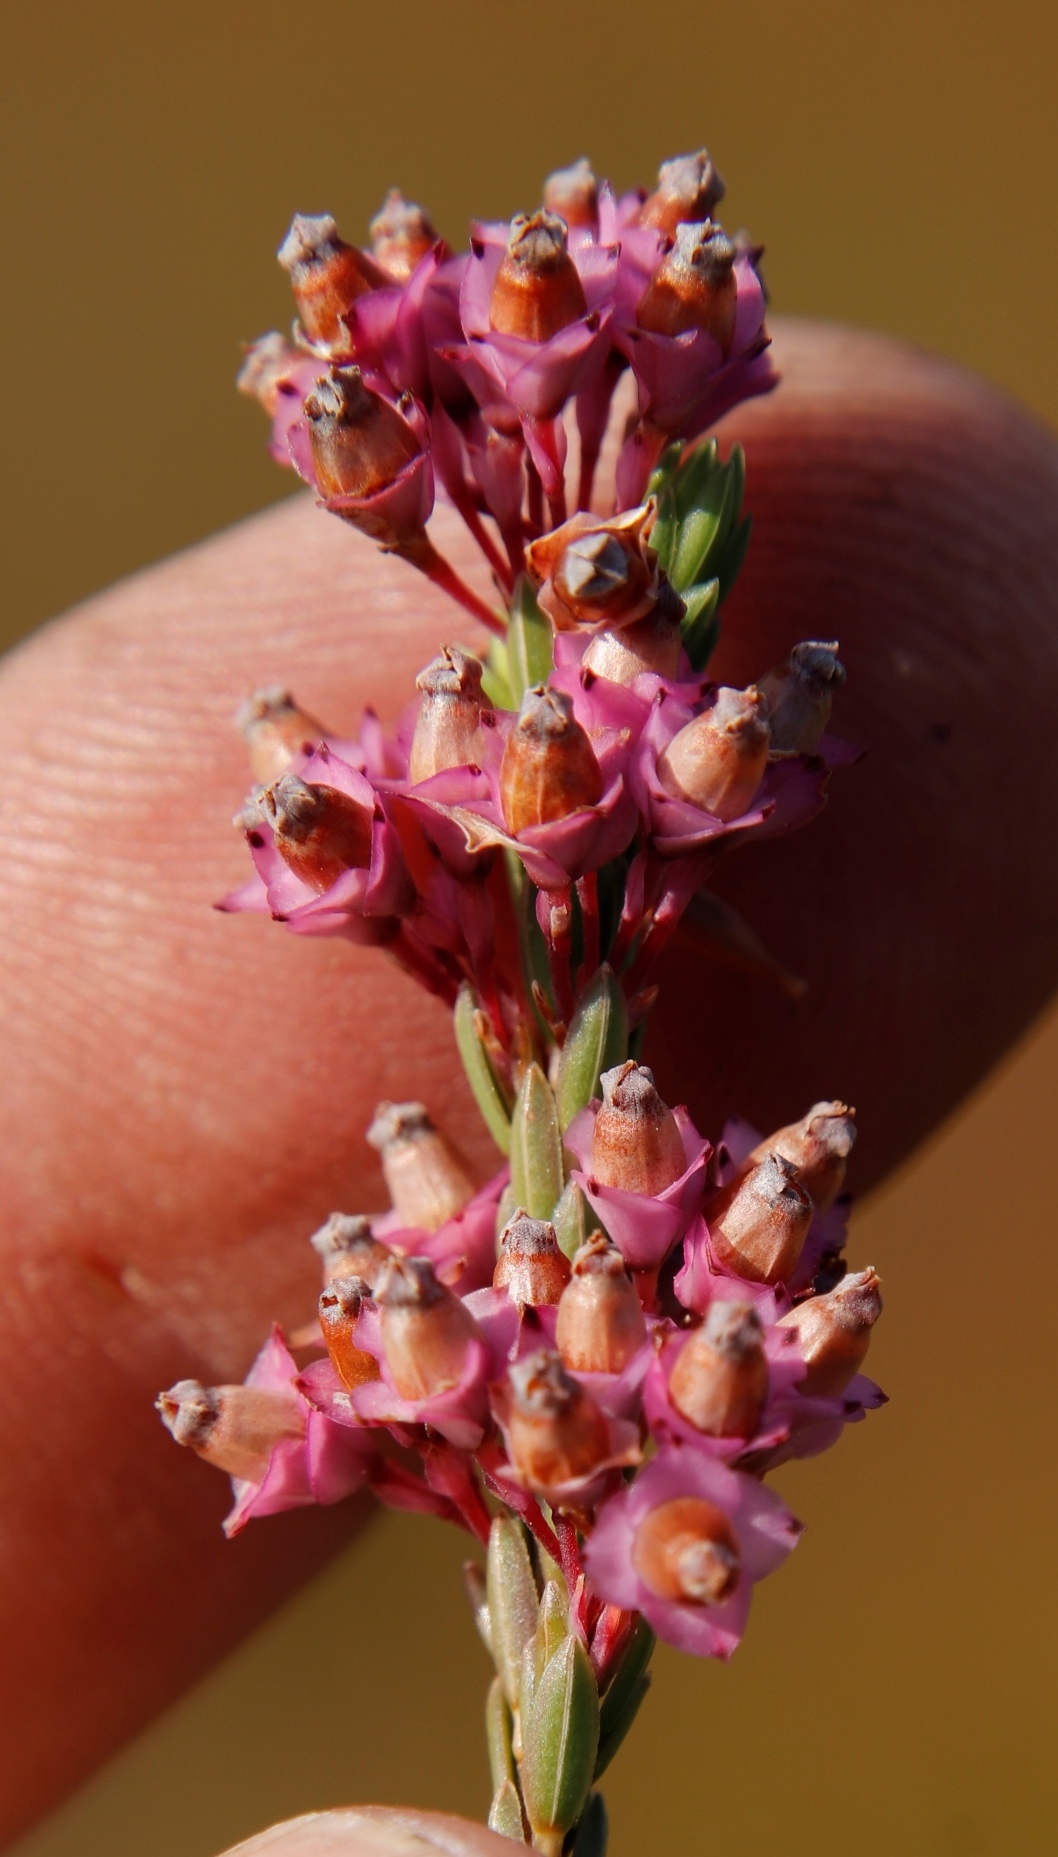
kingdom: Plantae
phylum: Tracheophyta
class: Magnoliopsida
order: Ericales
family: Ericaceae
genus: Erica
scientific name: Erica corifolia
